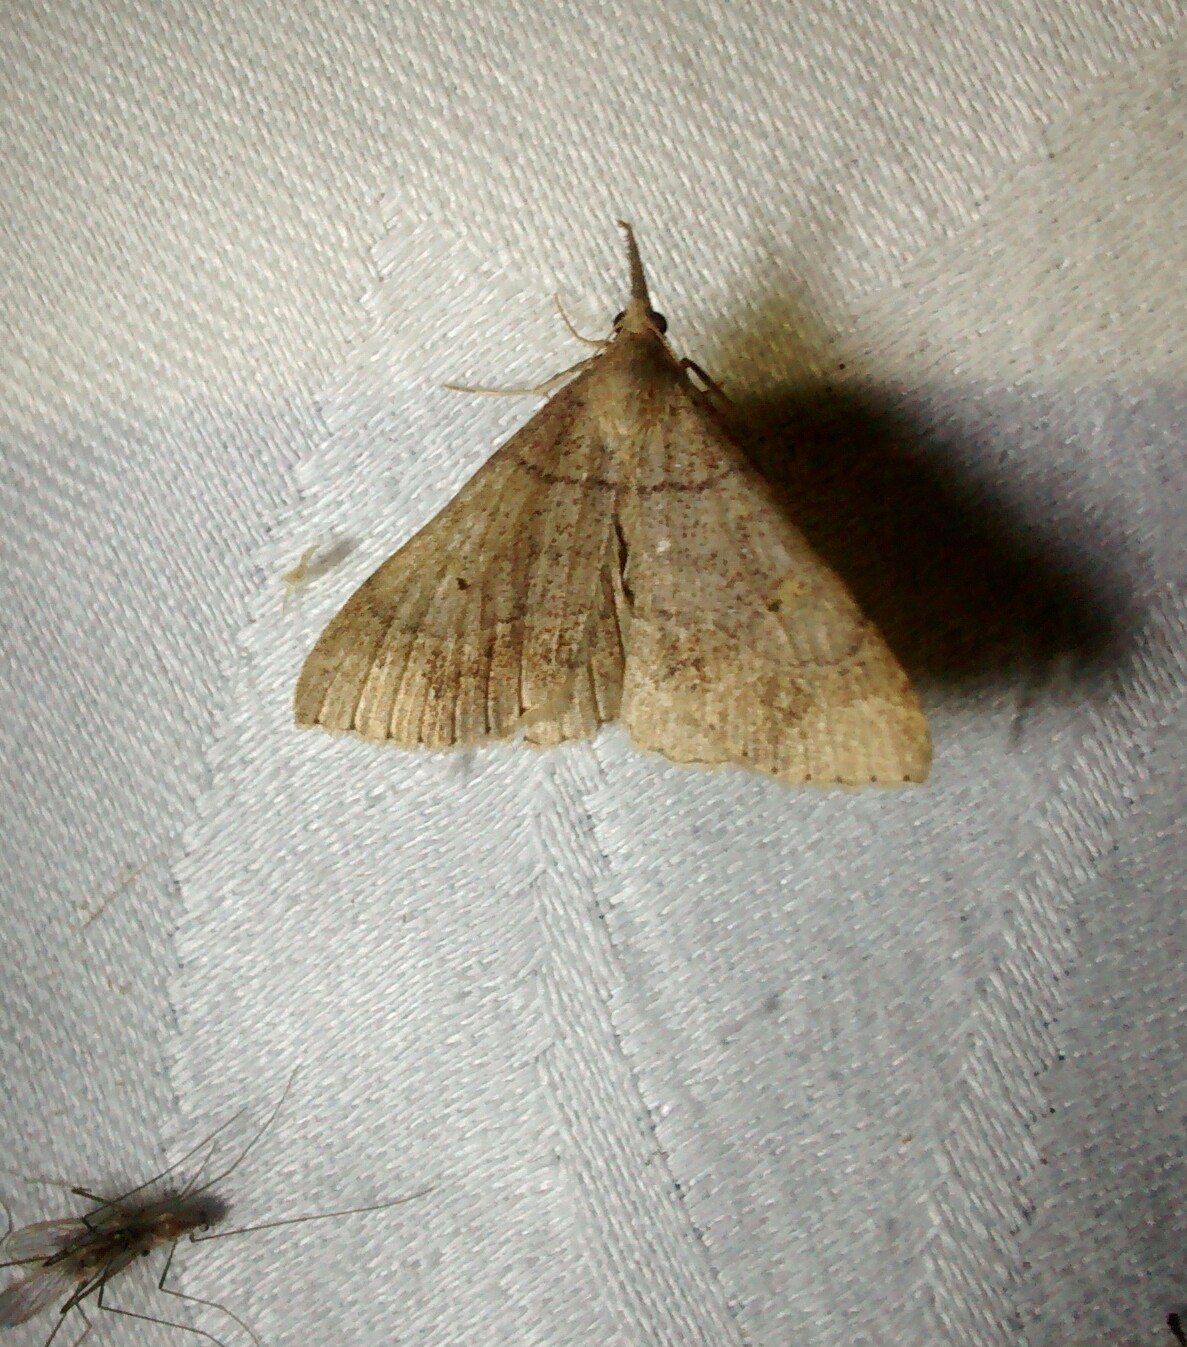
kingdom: Animalia
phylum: Arthropoda
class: Insecta
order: Lepidoptera
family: Erebidae
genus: Renia
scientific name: Renia flavipunctalis
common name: Yellow-spotted renia moth
